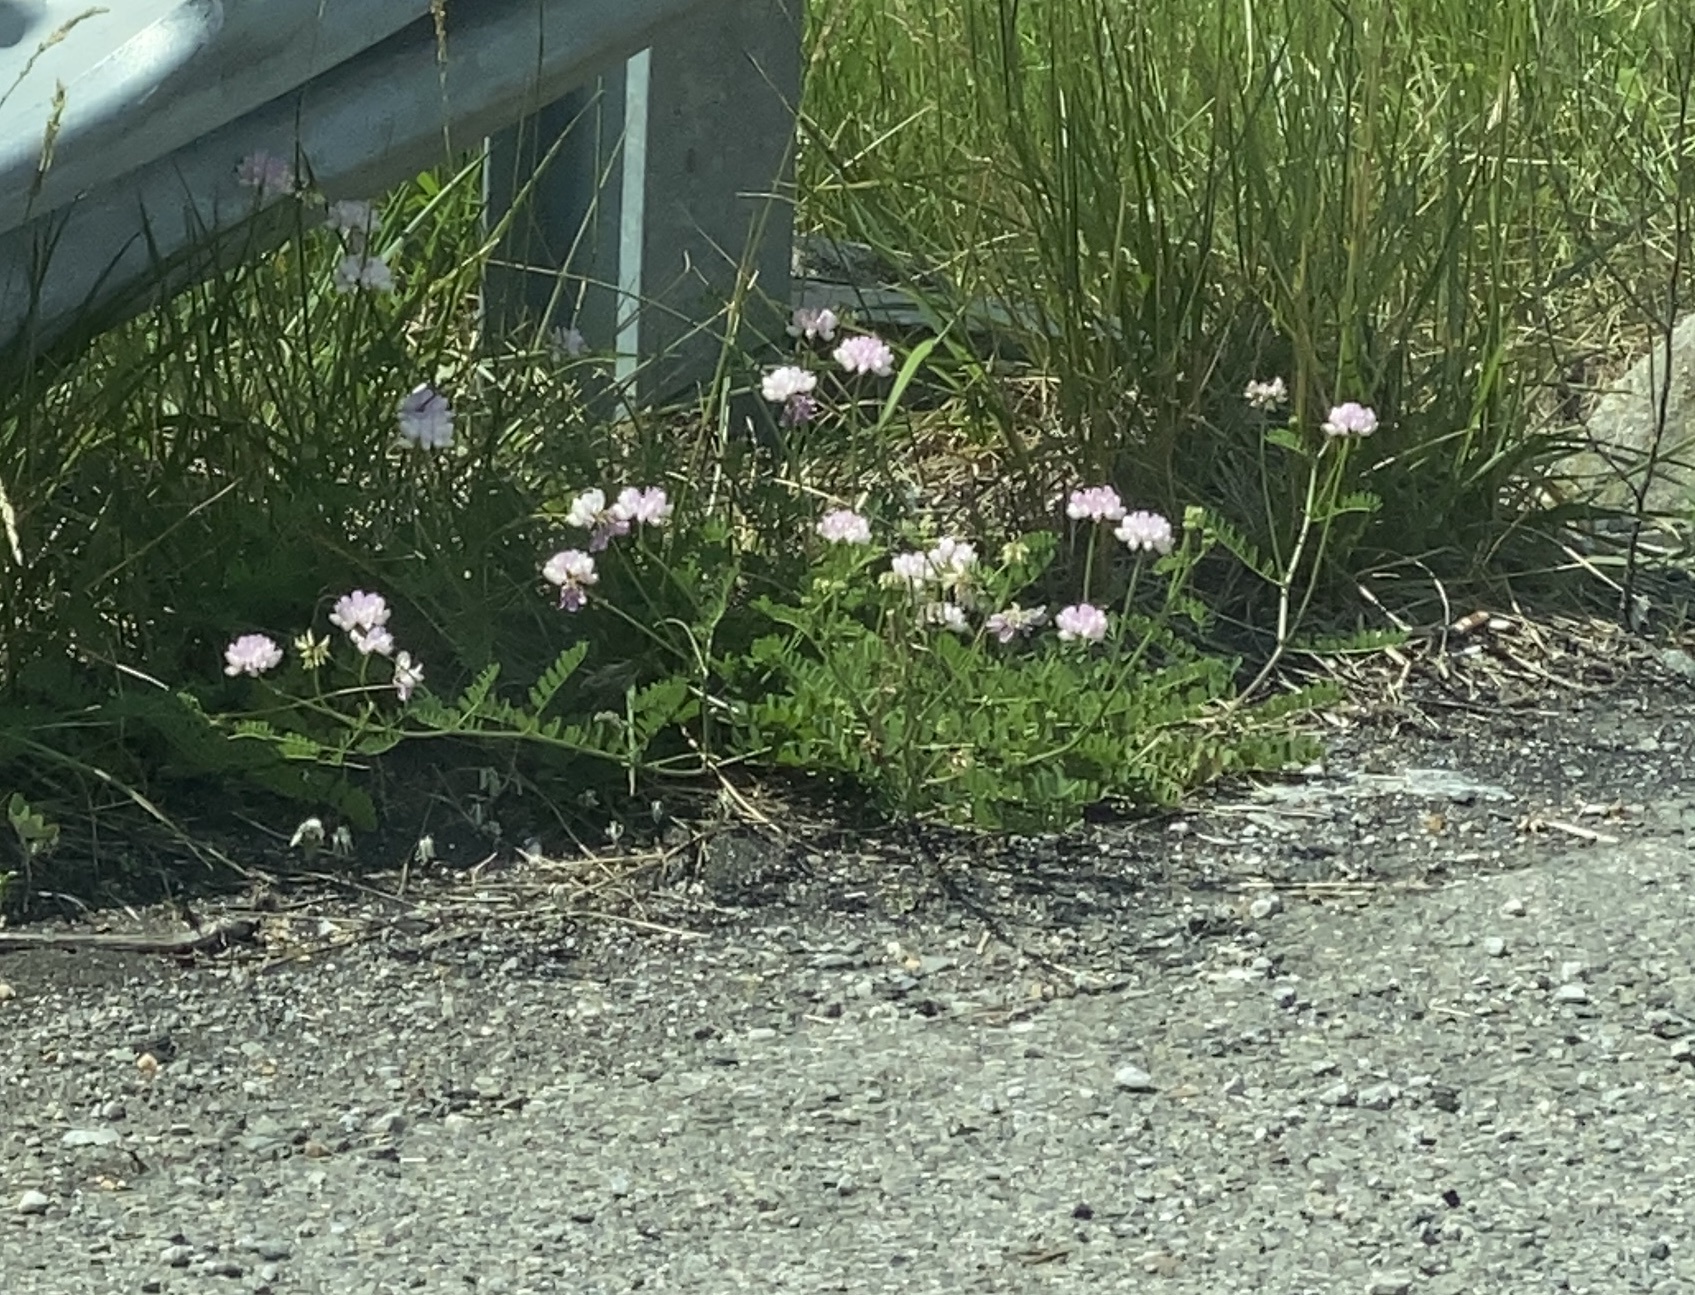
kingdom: Plantae
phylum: Tracheophyta
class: Magnoliopsida
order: Fabales
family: Fabaceae
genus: Coronilla
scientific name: Coronilla varia
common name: Crownvetch
